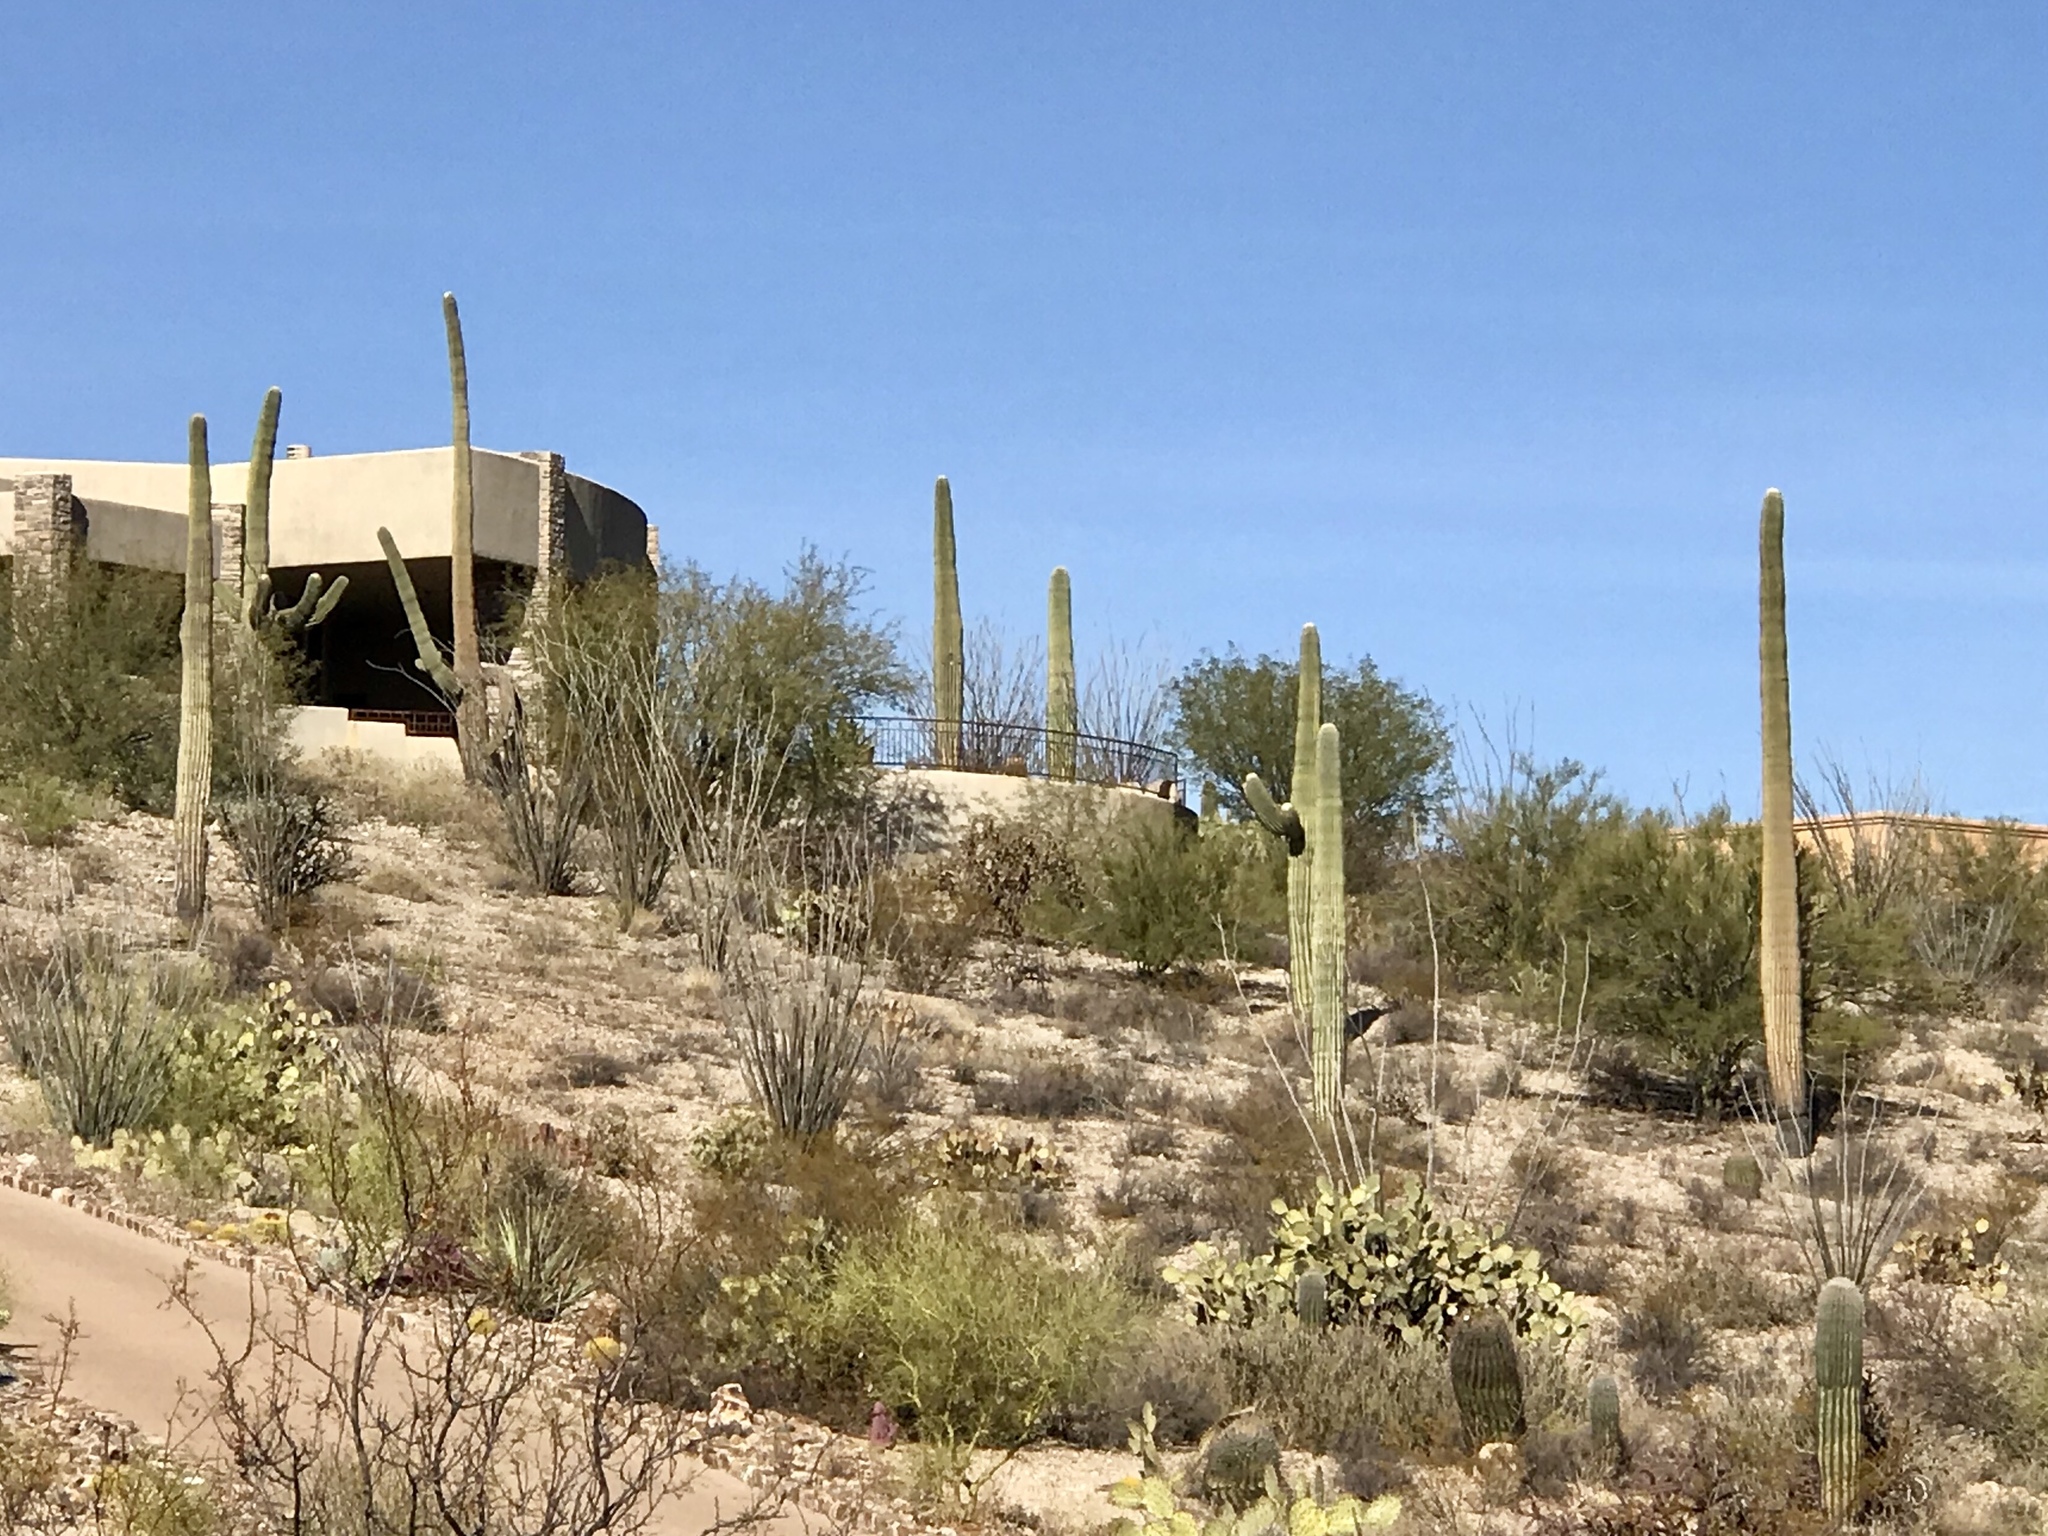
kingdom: Plantae
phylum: Tracheophyta
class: Magnoliopsida
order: Caryophyllales
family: Cactaceae
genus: Carnegiea
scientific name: Carnegiea gigantea
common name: Saguaro
